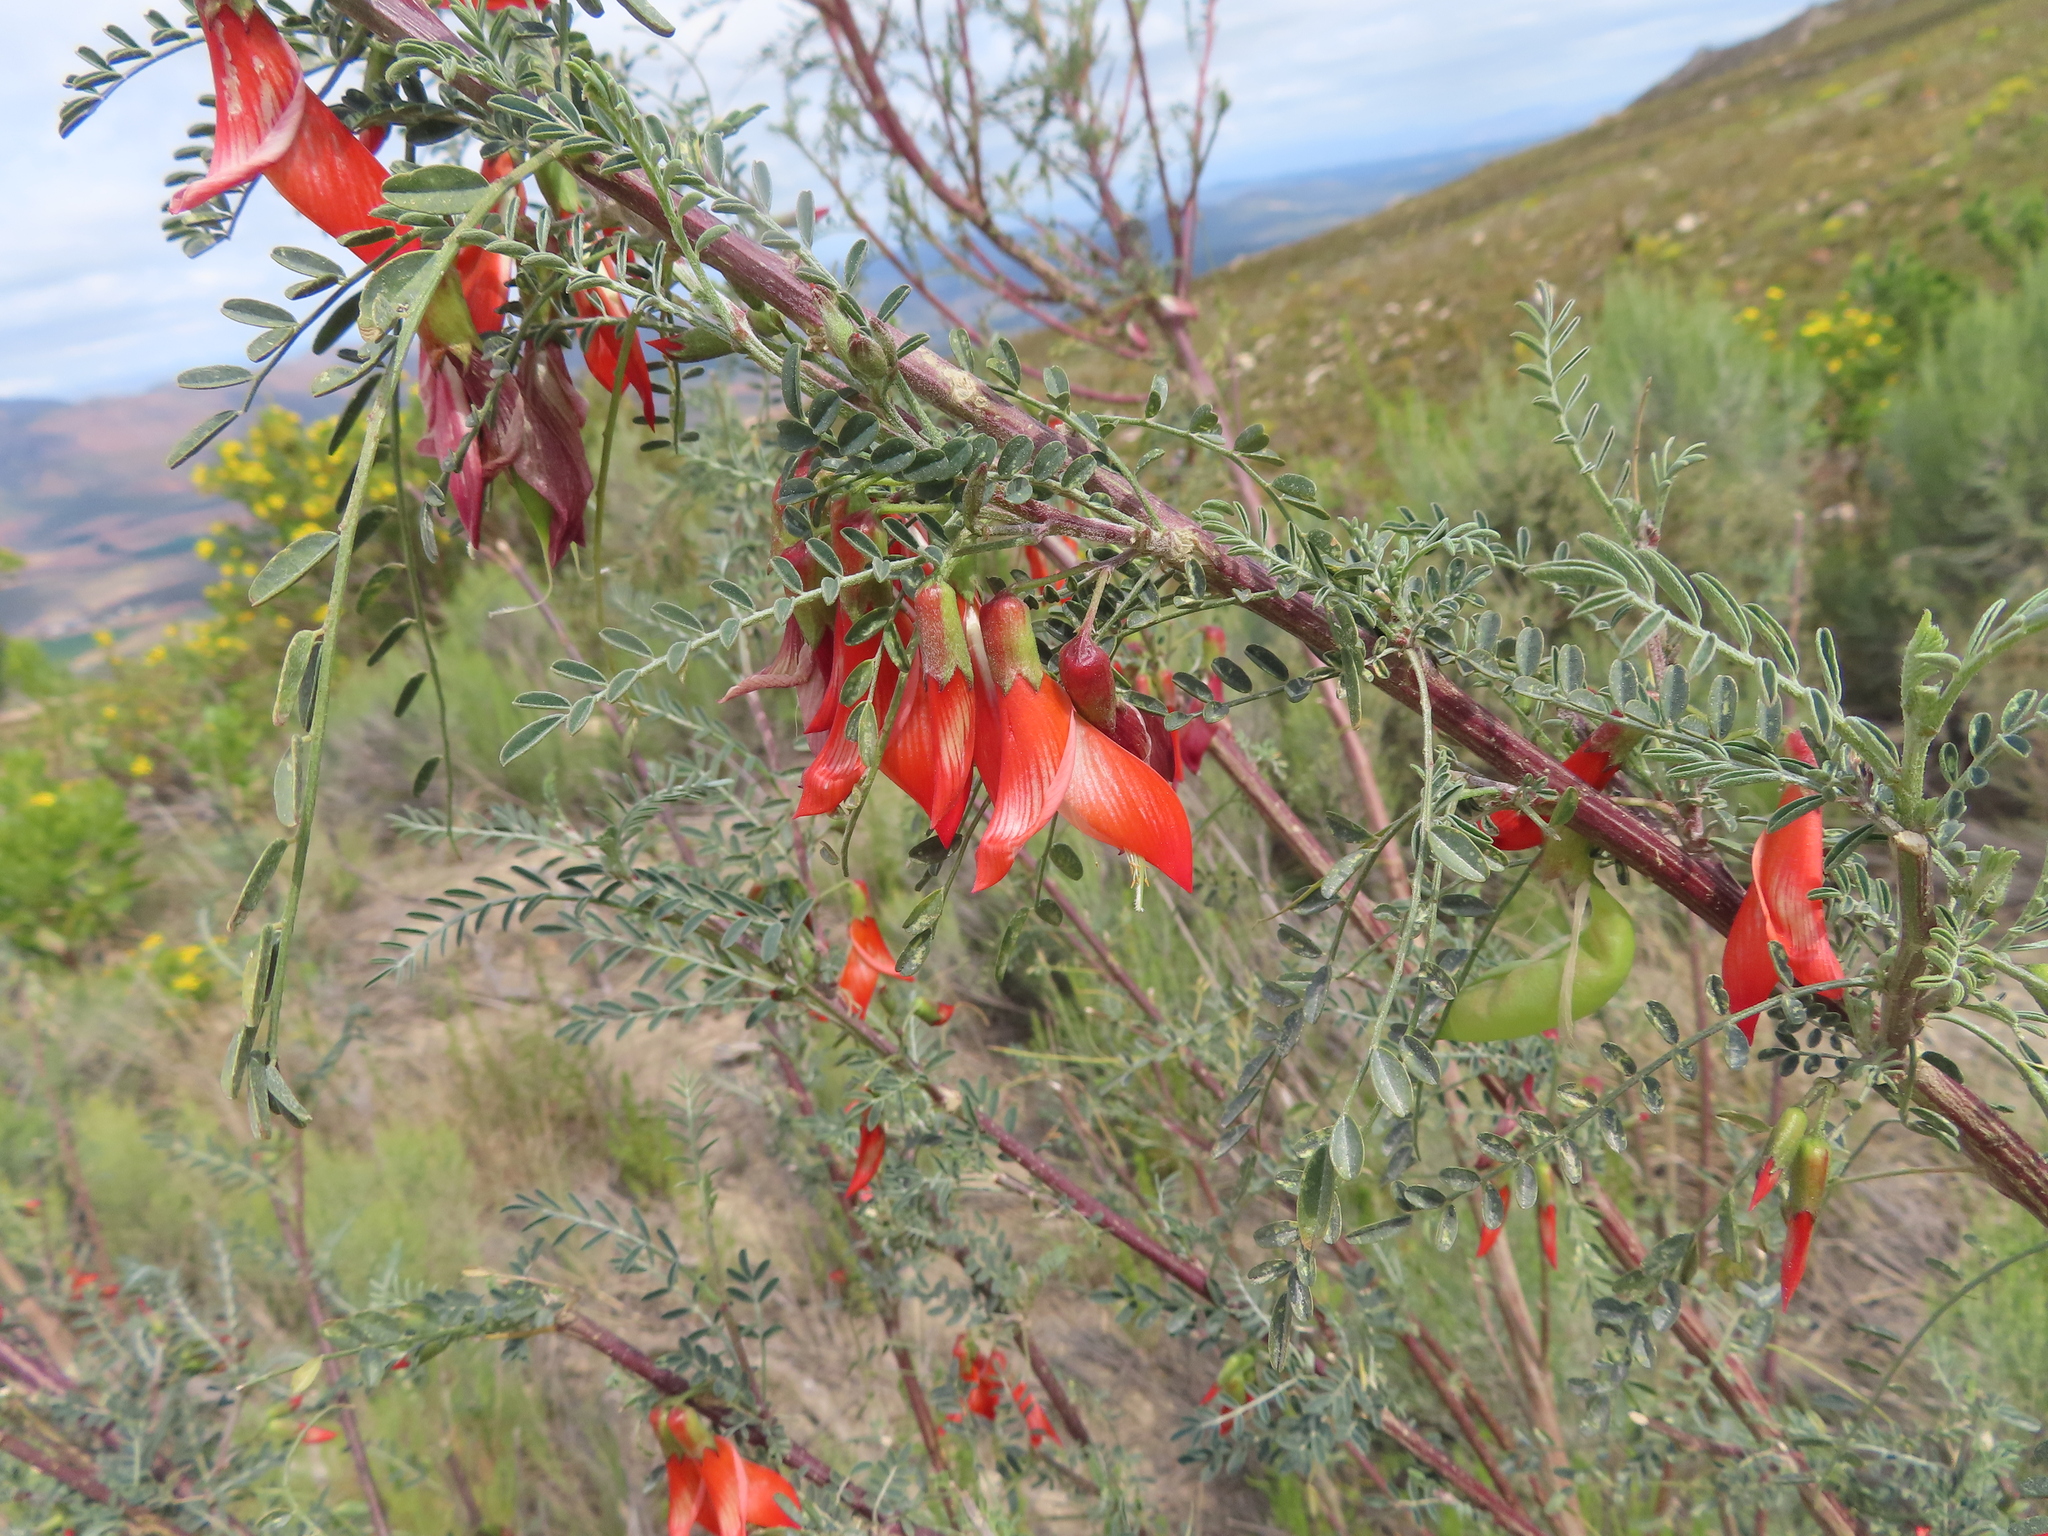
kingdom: Plantae
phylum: Tracheophyta
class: Magnoliopsida
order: Fabales
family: Fabaceae
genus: Lessertia
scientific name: Lessertia frutescens
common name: Balloon-pea
